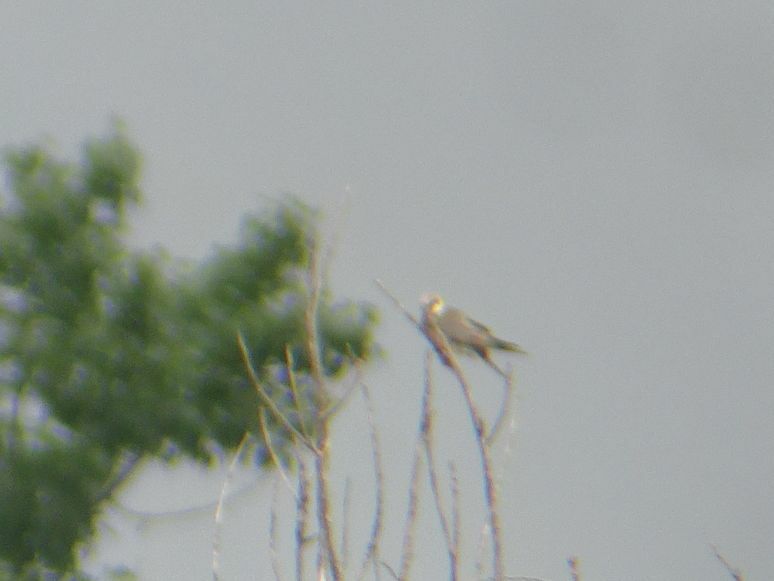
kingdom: Animalia
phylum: Chordata
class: Aves
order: Falconiformes
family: Falconidae
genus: Falco
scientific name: Falco vespertinus
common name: Red-footed falcon
